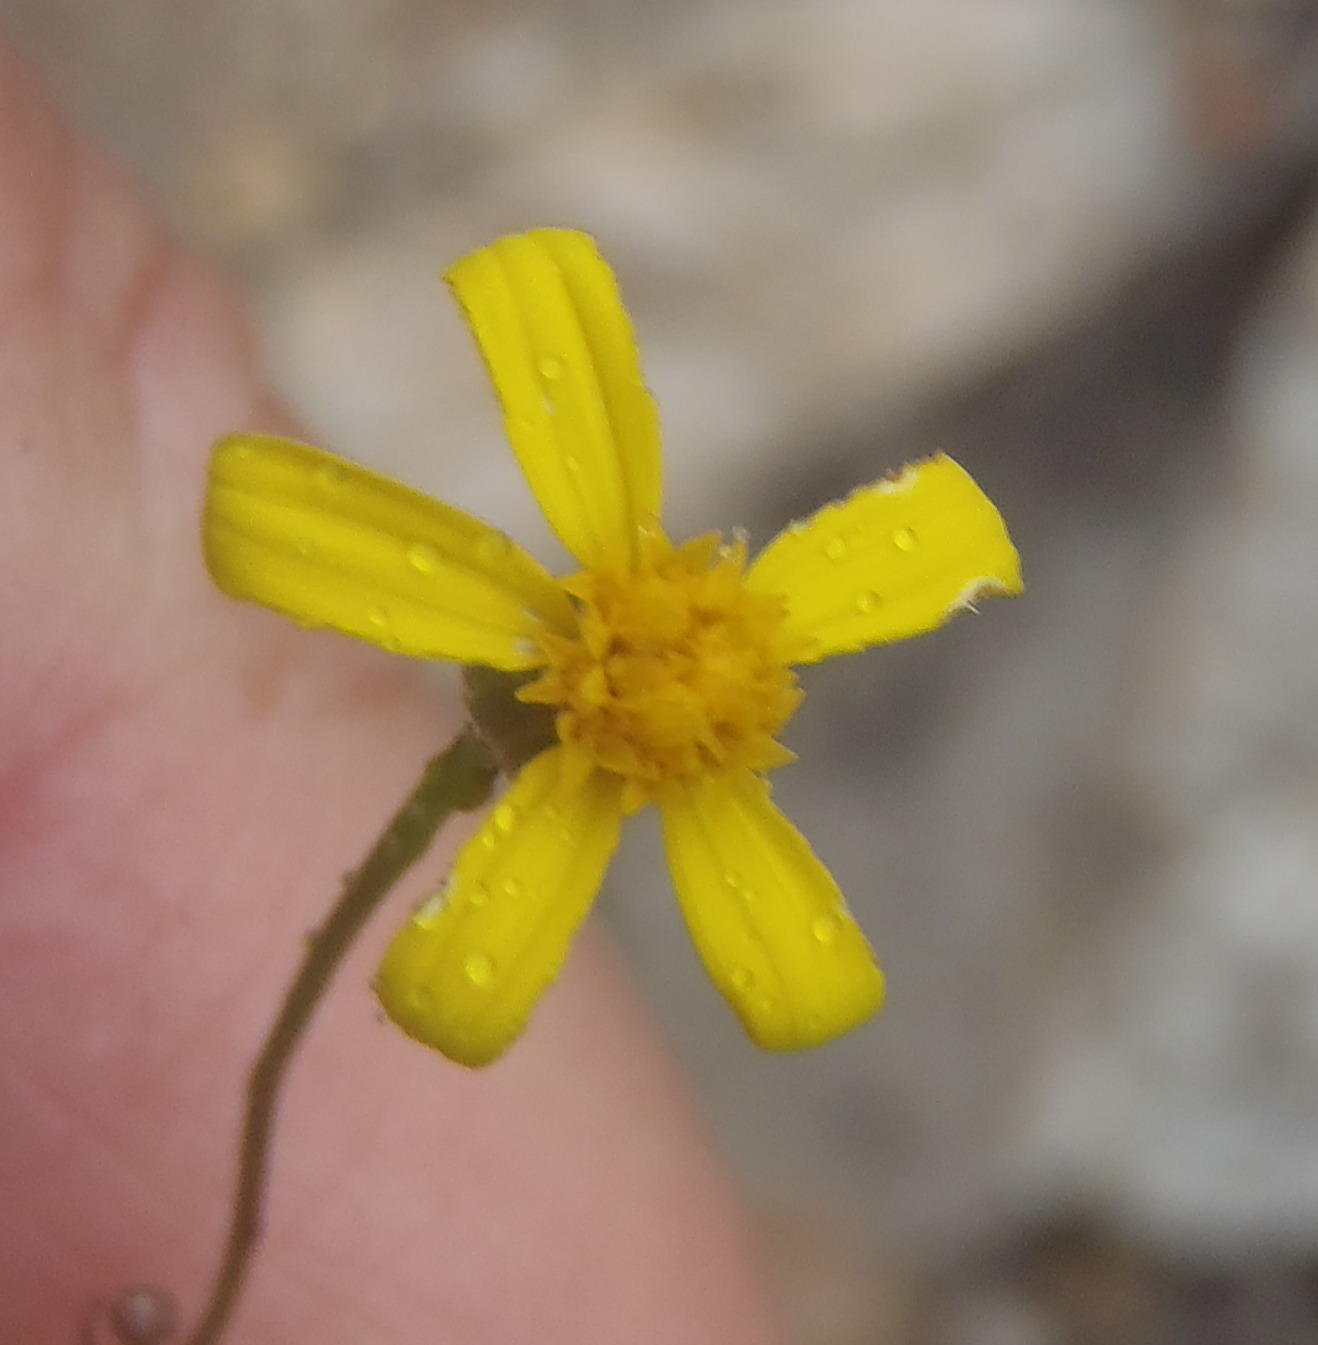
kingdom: Plantae
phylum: Tracheophyta
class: Magnoliopsida
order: Asterales
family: Asteraceae
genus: Cineraria
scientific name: Cineraria lobata
